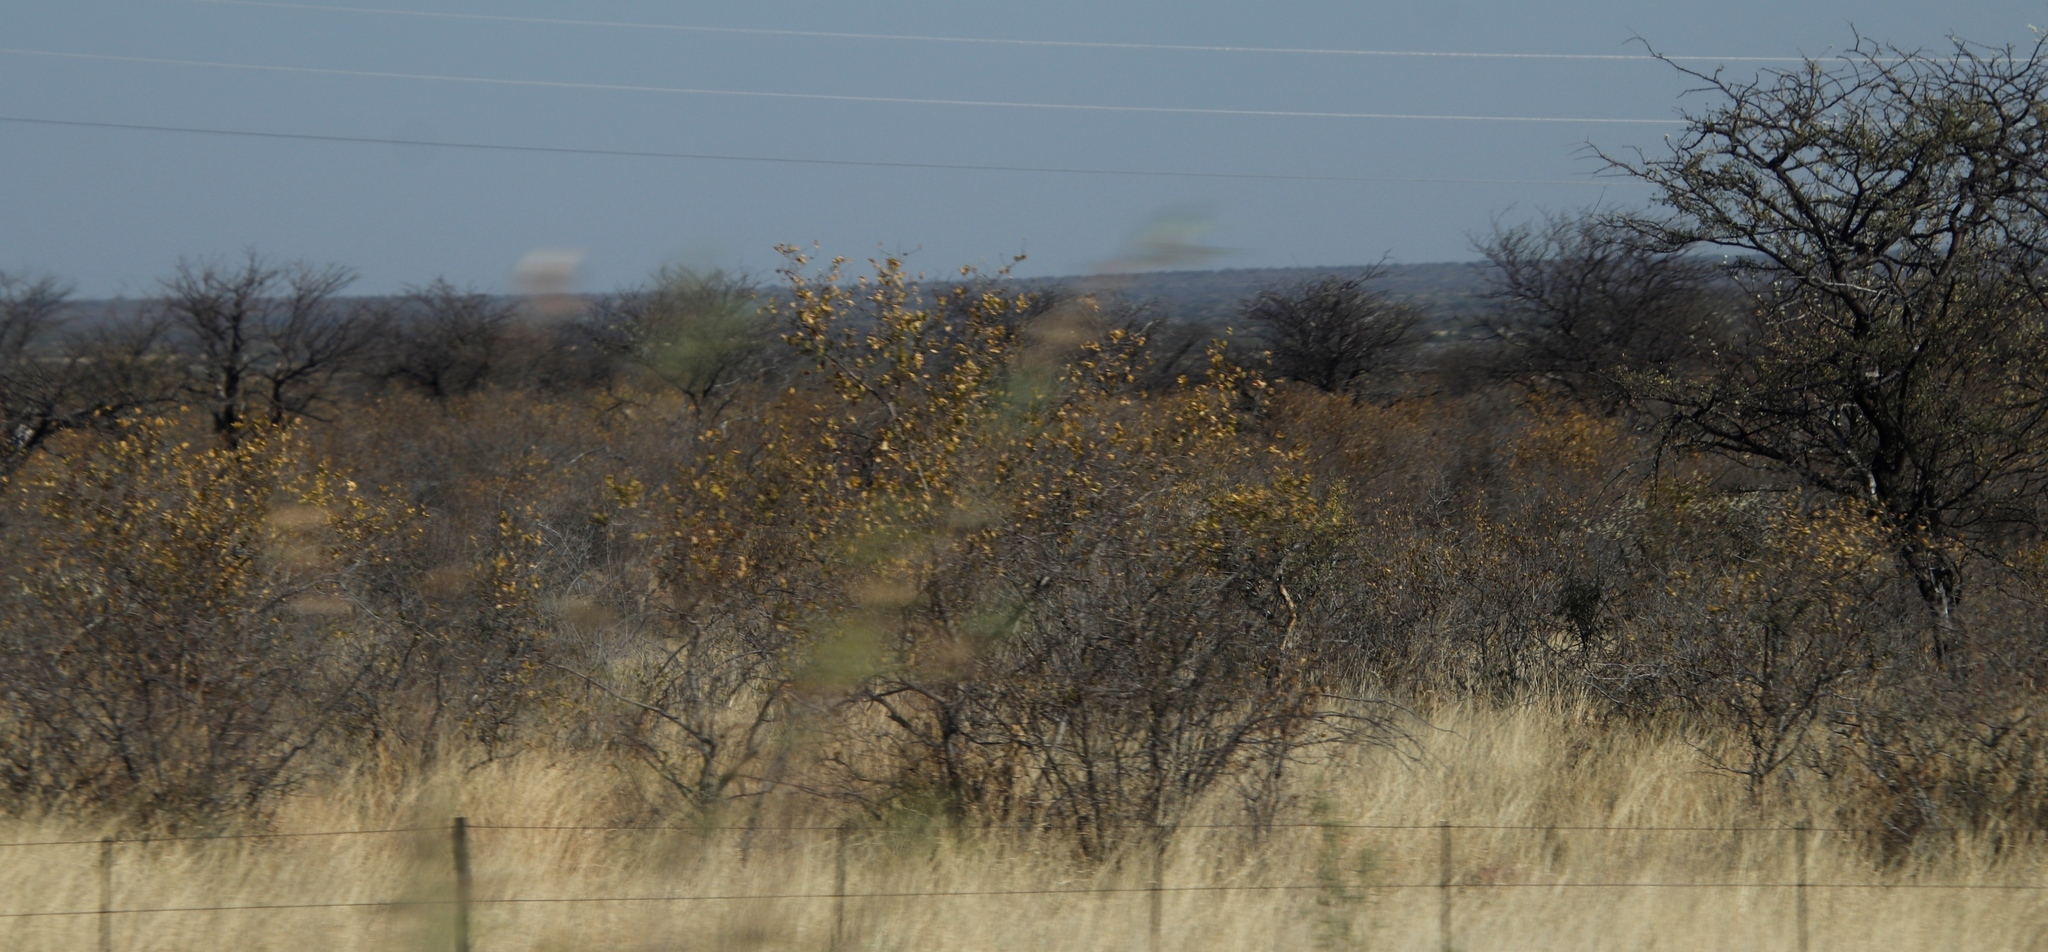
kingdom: Plantae
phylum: Tracheophyta
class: Magnoliopsida
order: Myrtales
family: Combretaceae
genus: Combretum
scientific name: Combretum apiculatum
